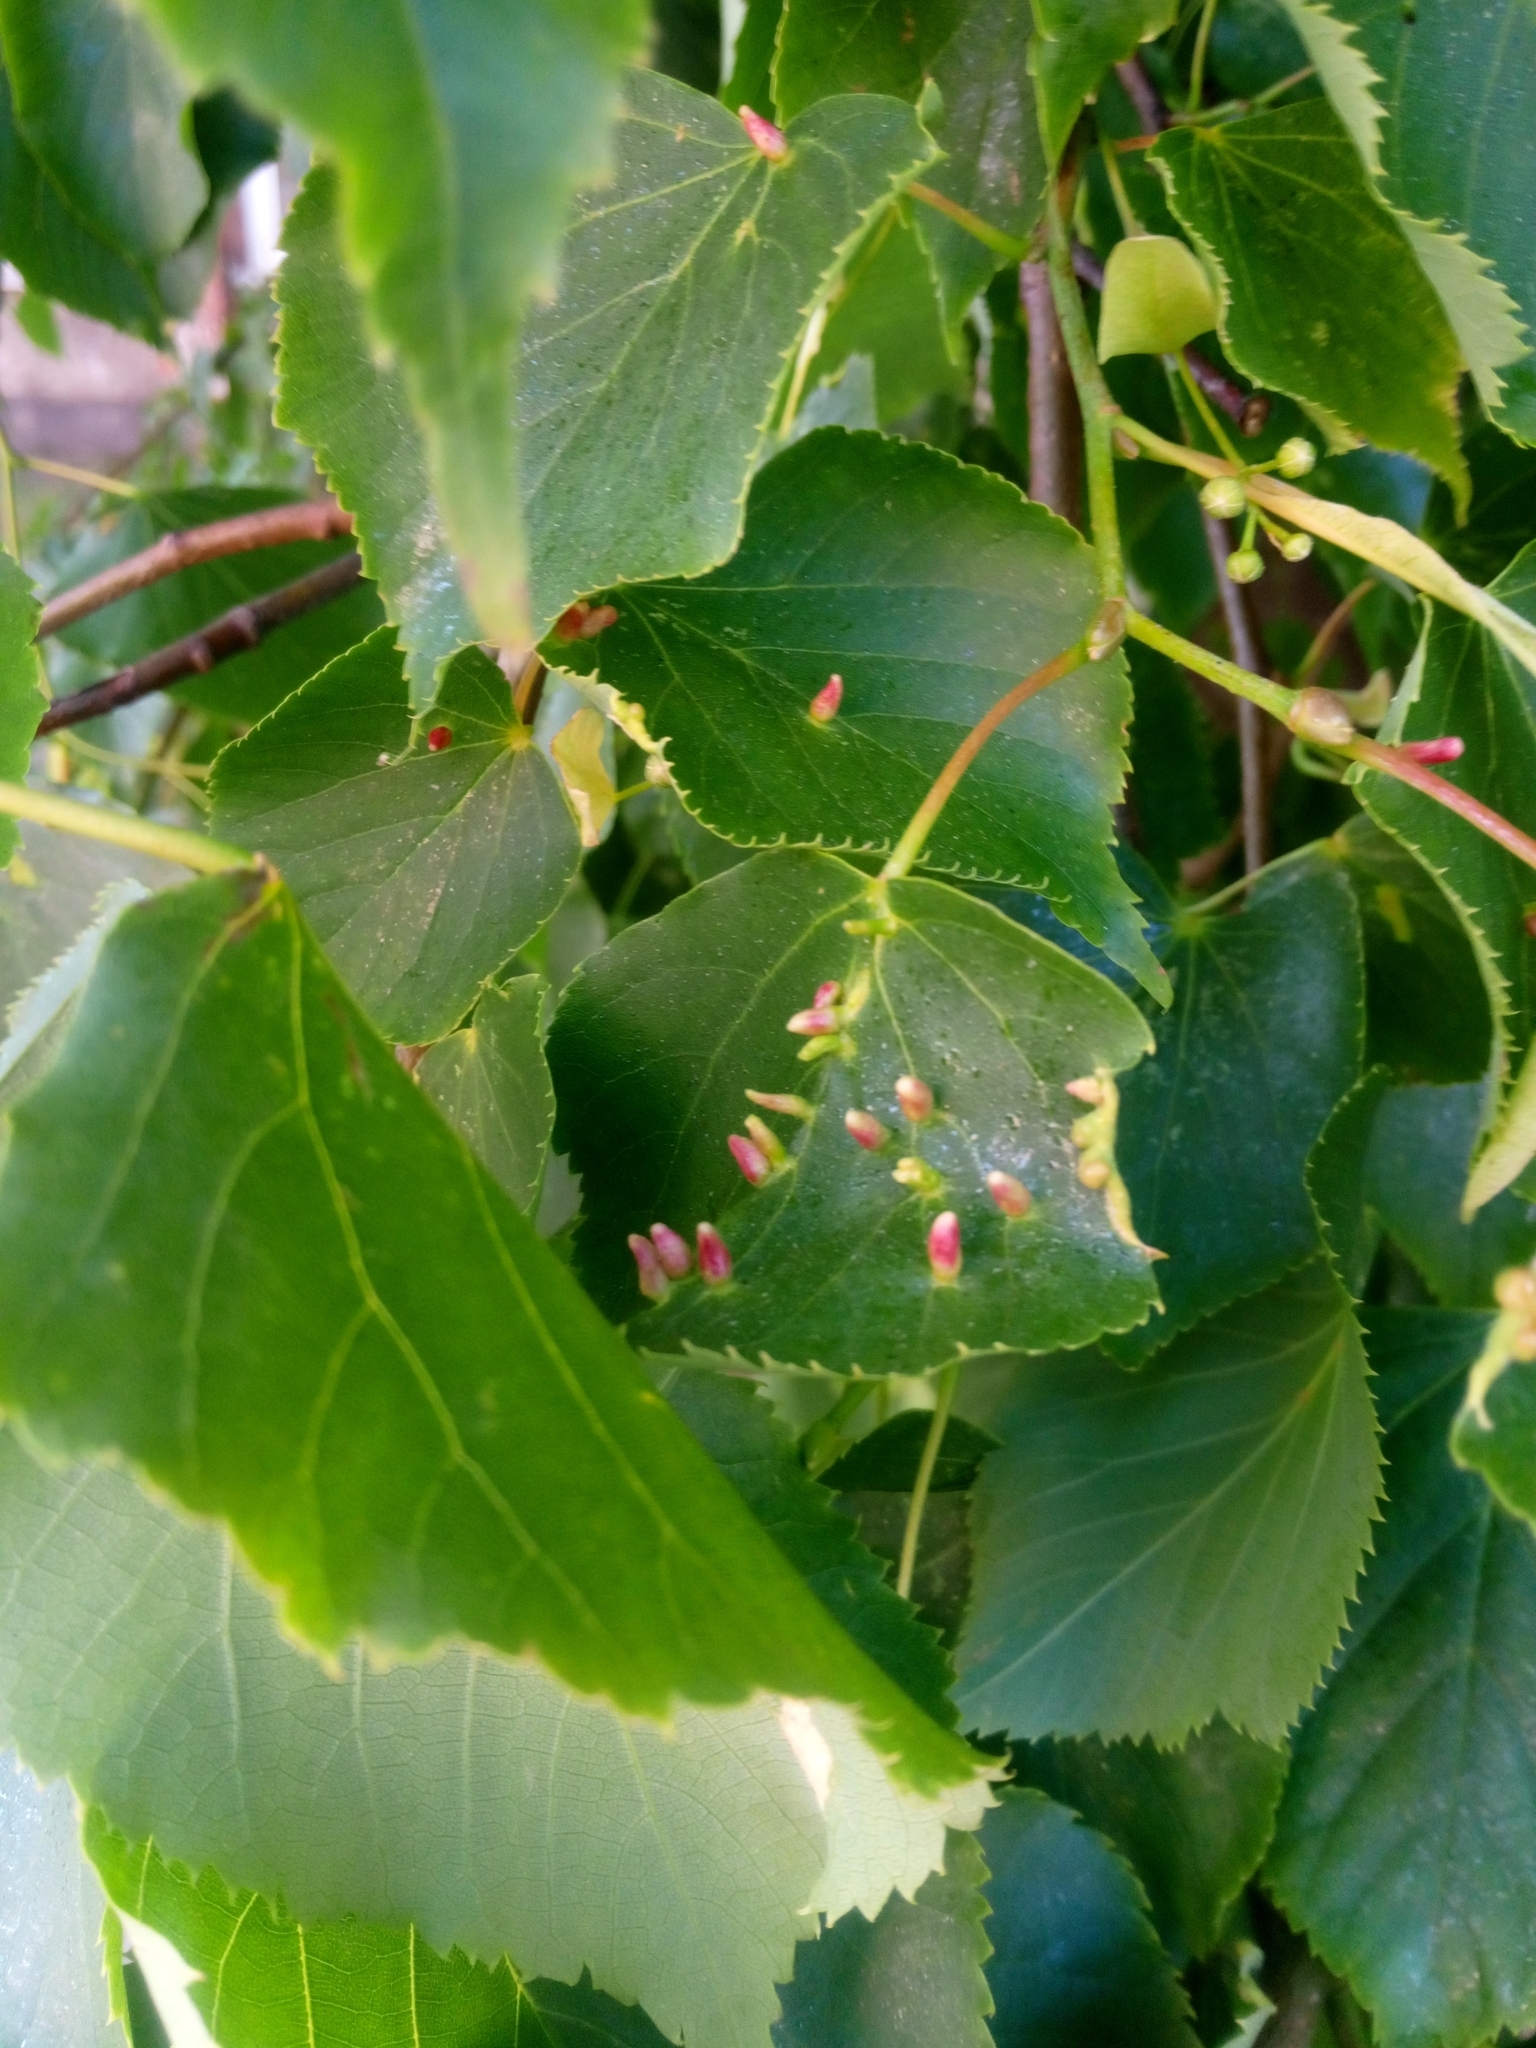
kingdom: Animalia
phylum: Arthropoda
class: Arachnida
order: Trombidiformes
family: Eriophyidae
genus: Eriophyes
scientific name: Eriophyes tiliae
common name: Red nail gall mite
